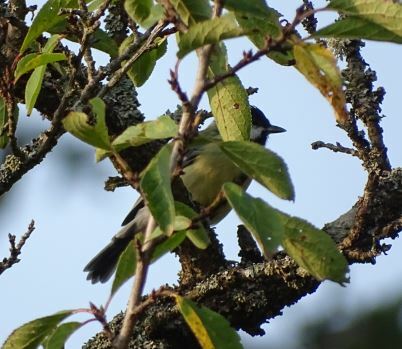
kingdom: Animalia
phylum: Chordata
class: Aves
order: Passeriformes
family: Paridae
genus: Parus
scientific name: Parus major
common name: Great tit
